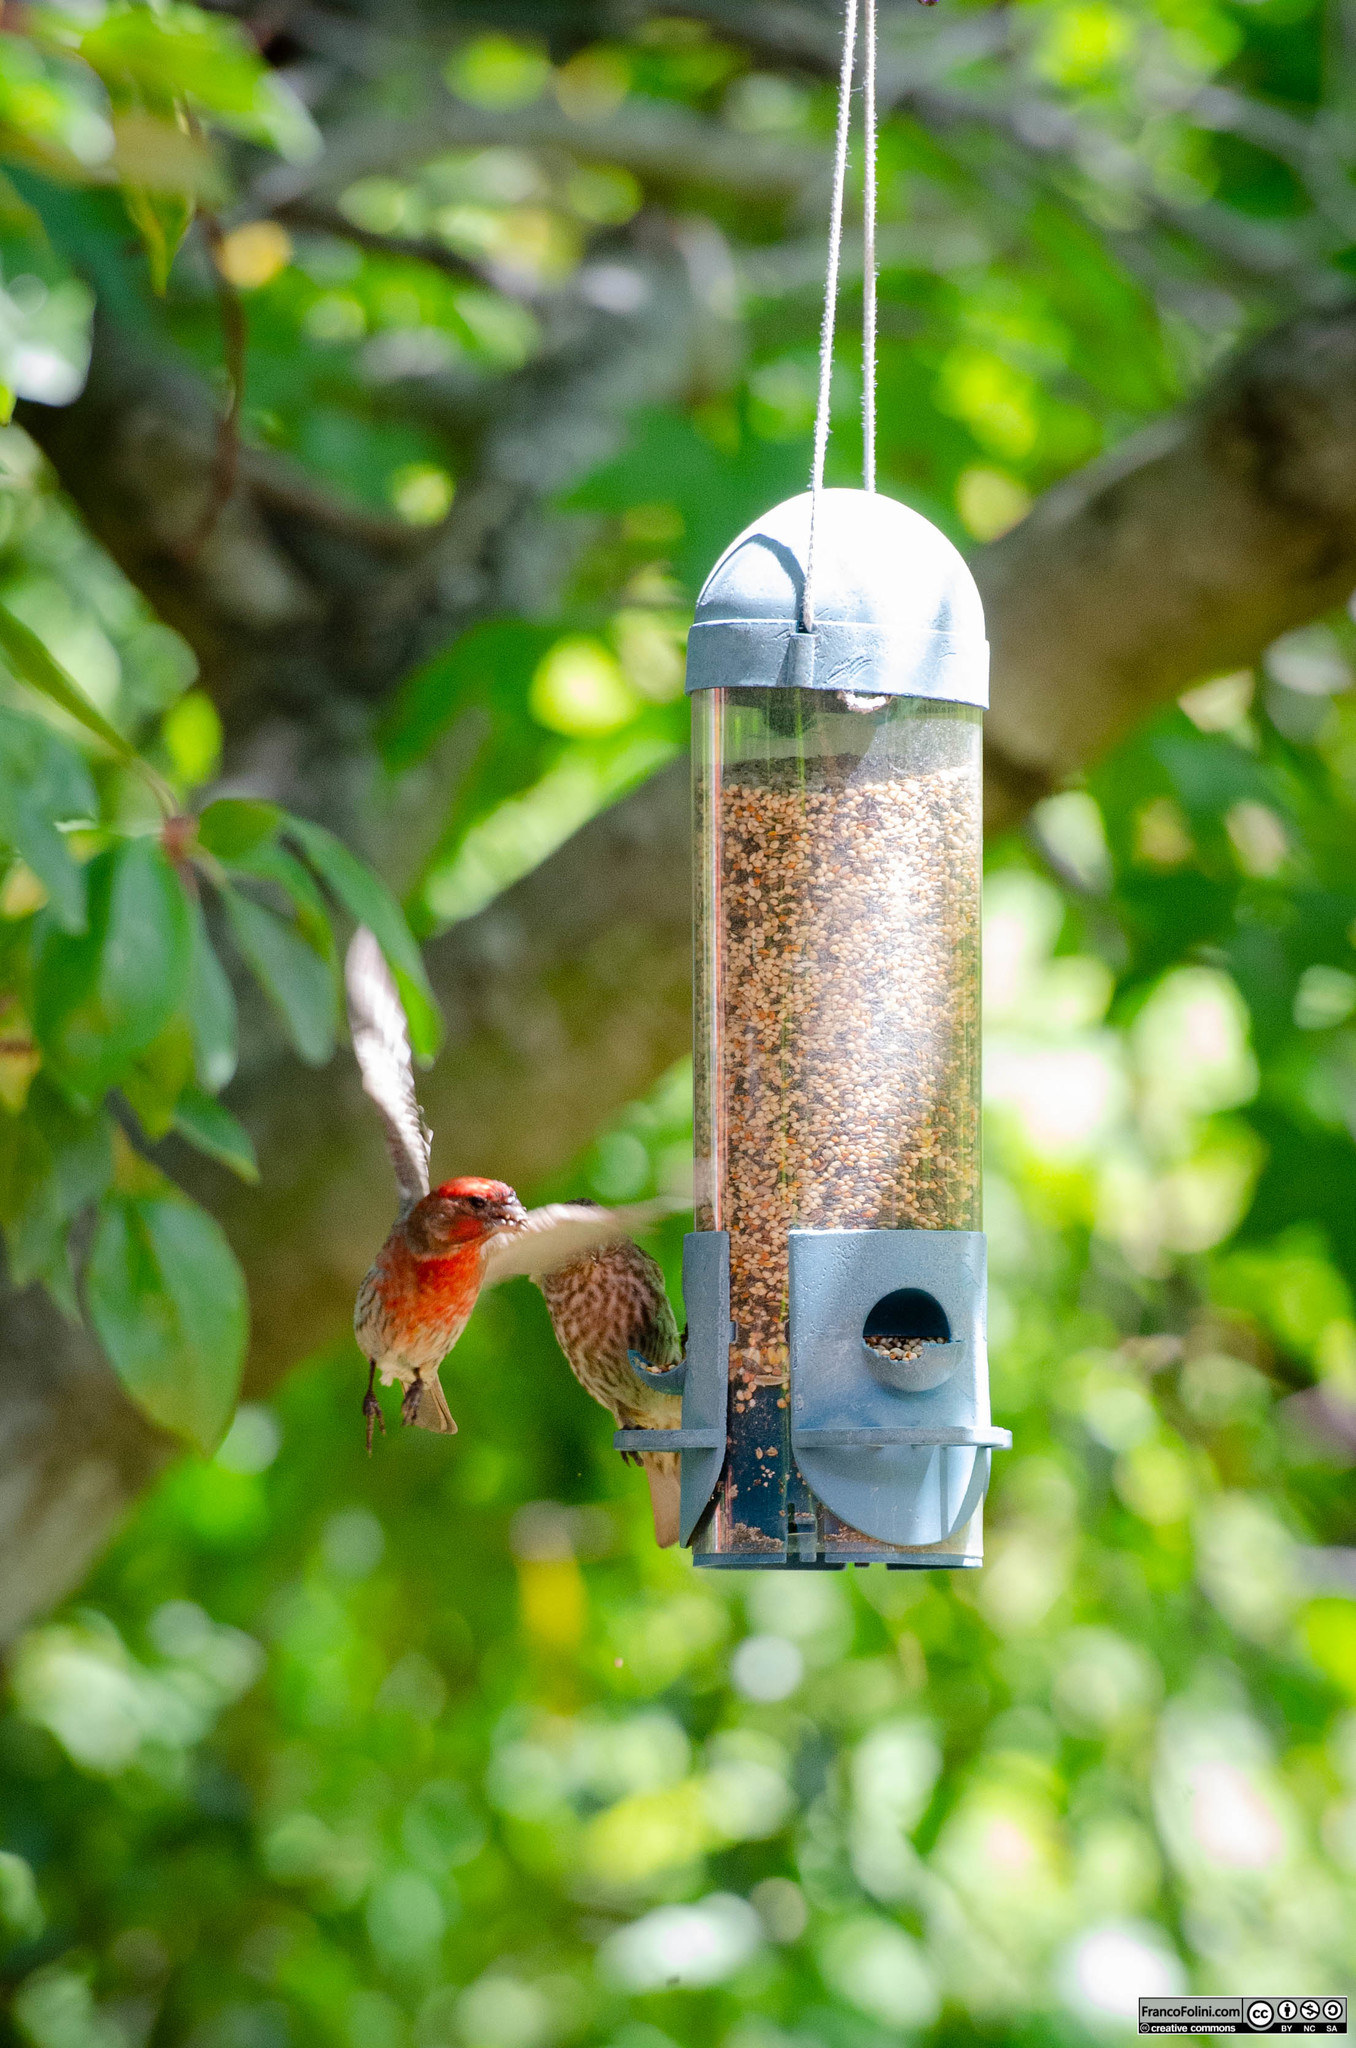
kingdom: Animalia
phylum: Chordata
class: Aves
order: Passeriformes
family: Fringillidae
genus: Haemorhous
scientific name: Haemorhous mexicanus
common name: House finch
